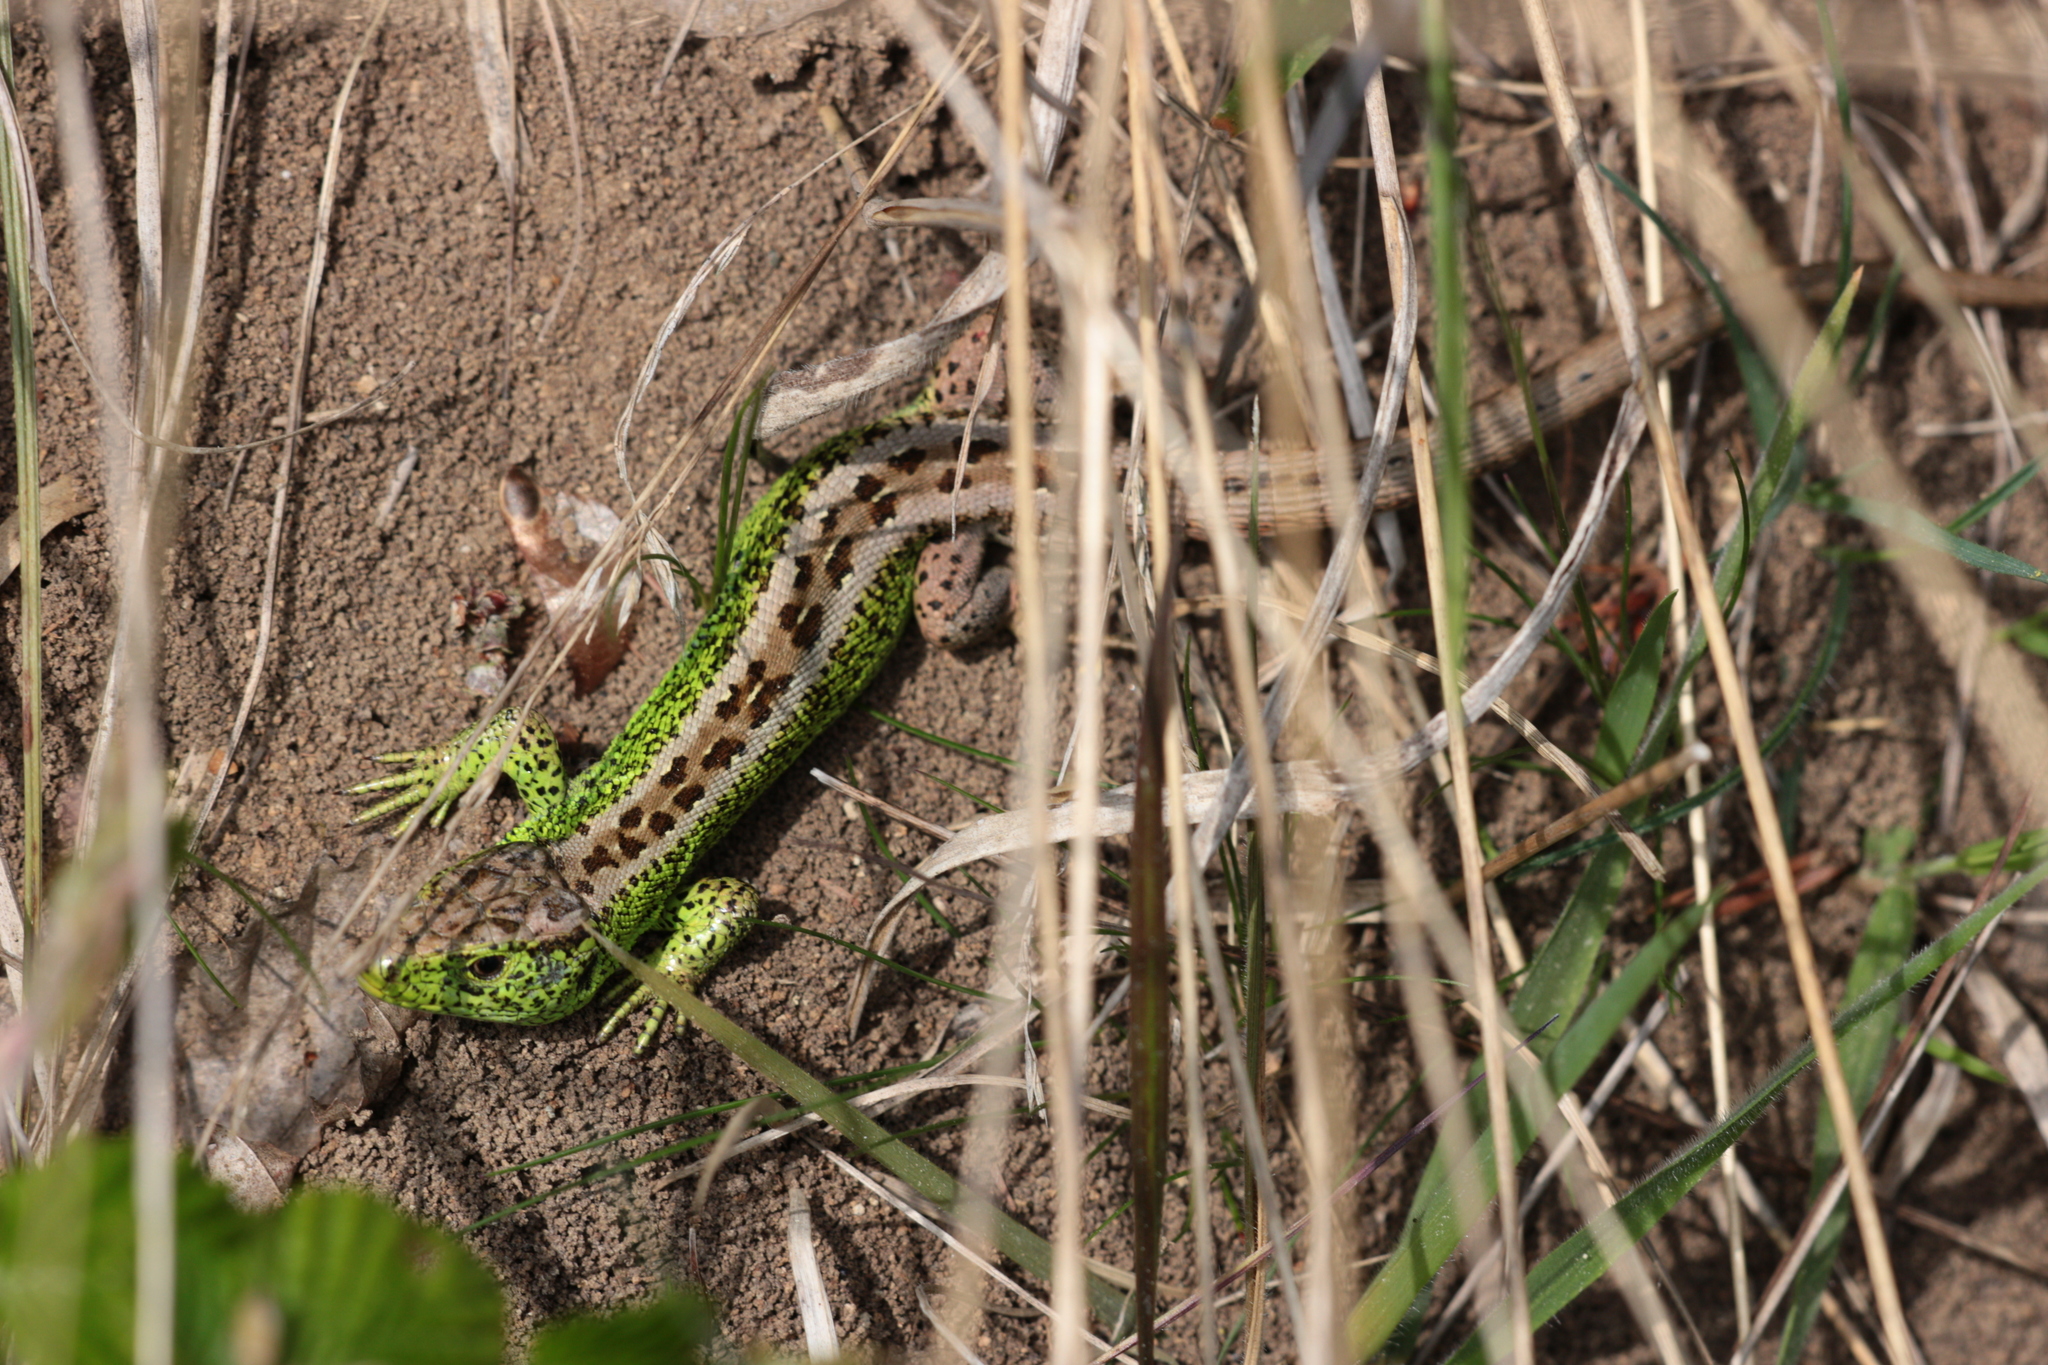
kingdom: Animalia
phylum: Chordata
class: Squamata
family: Lacertidae
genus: Lacerta
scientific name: Lacerta agilis
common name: Sand lizard
